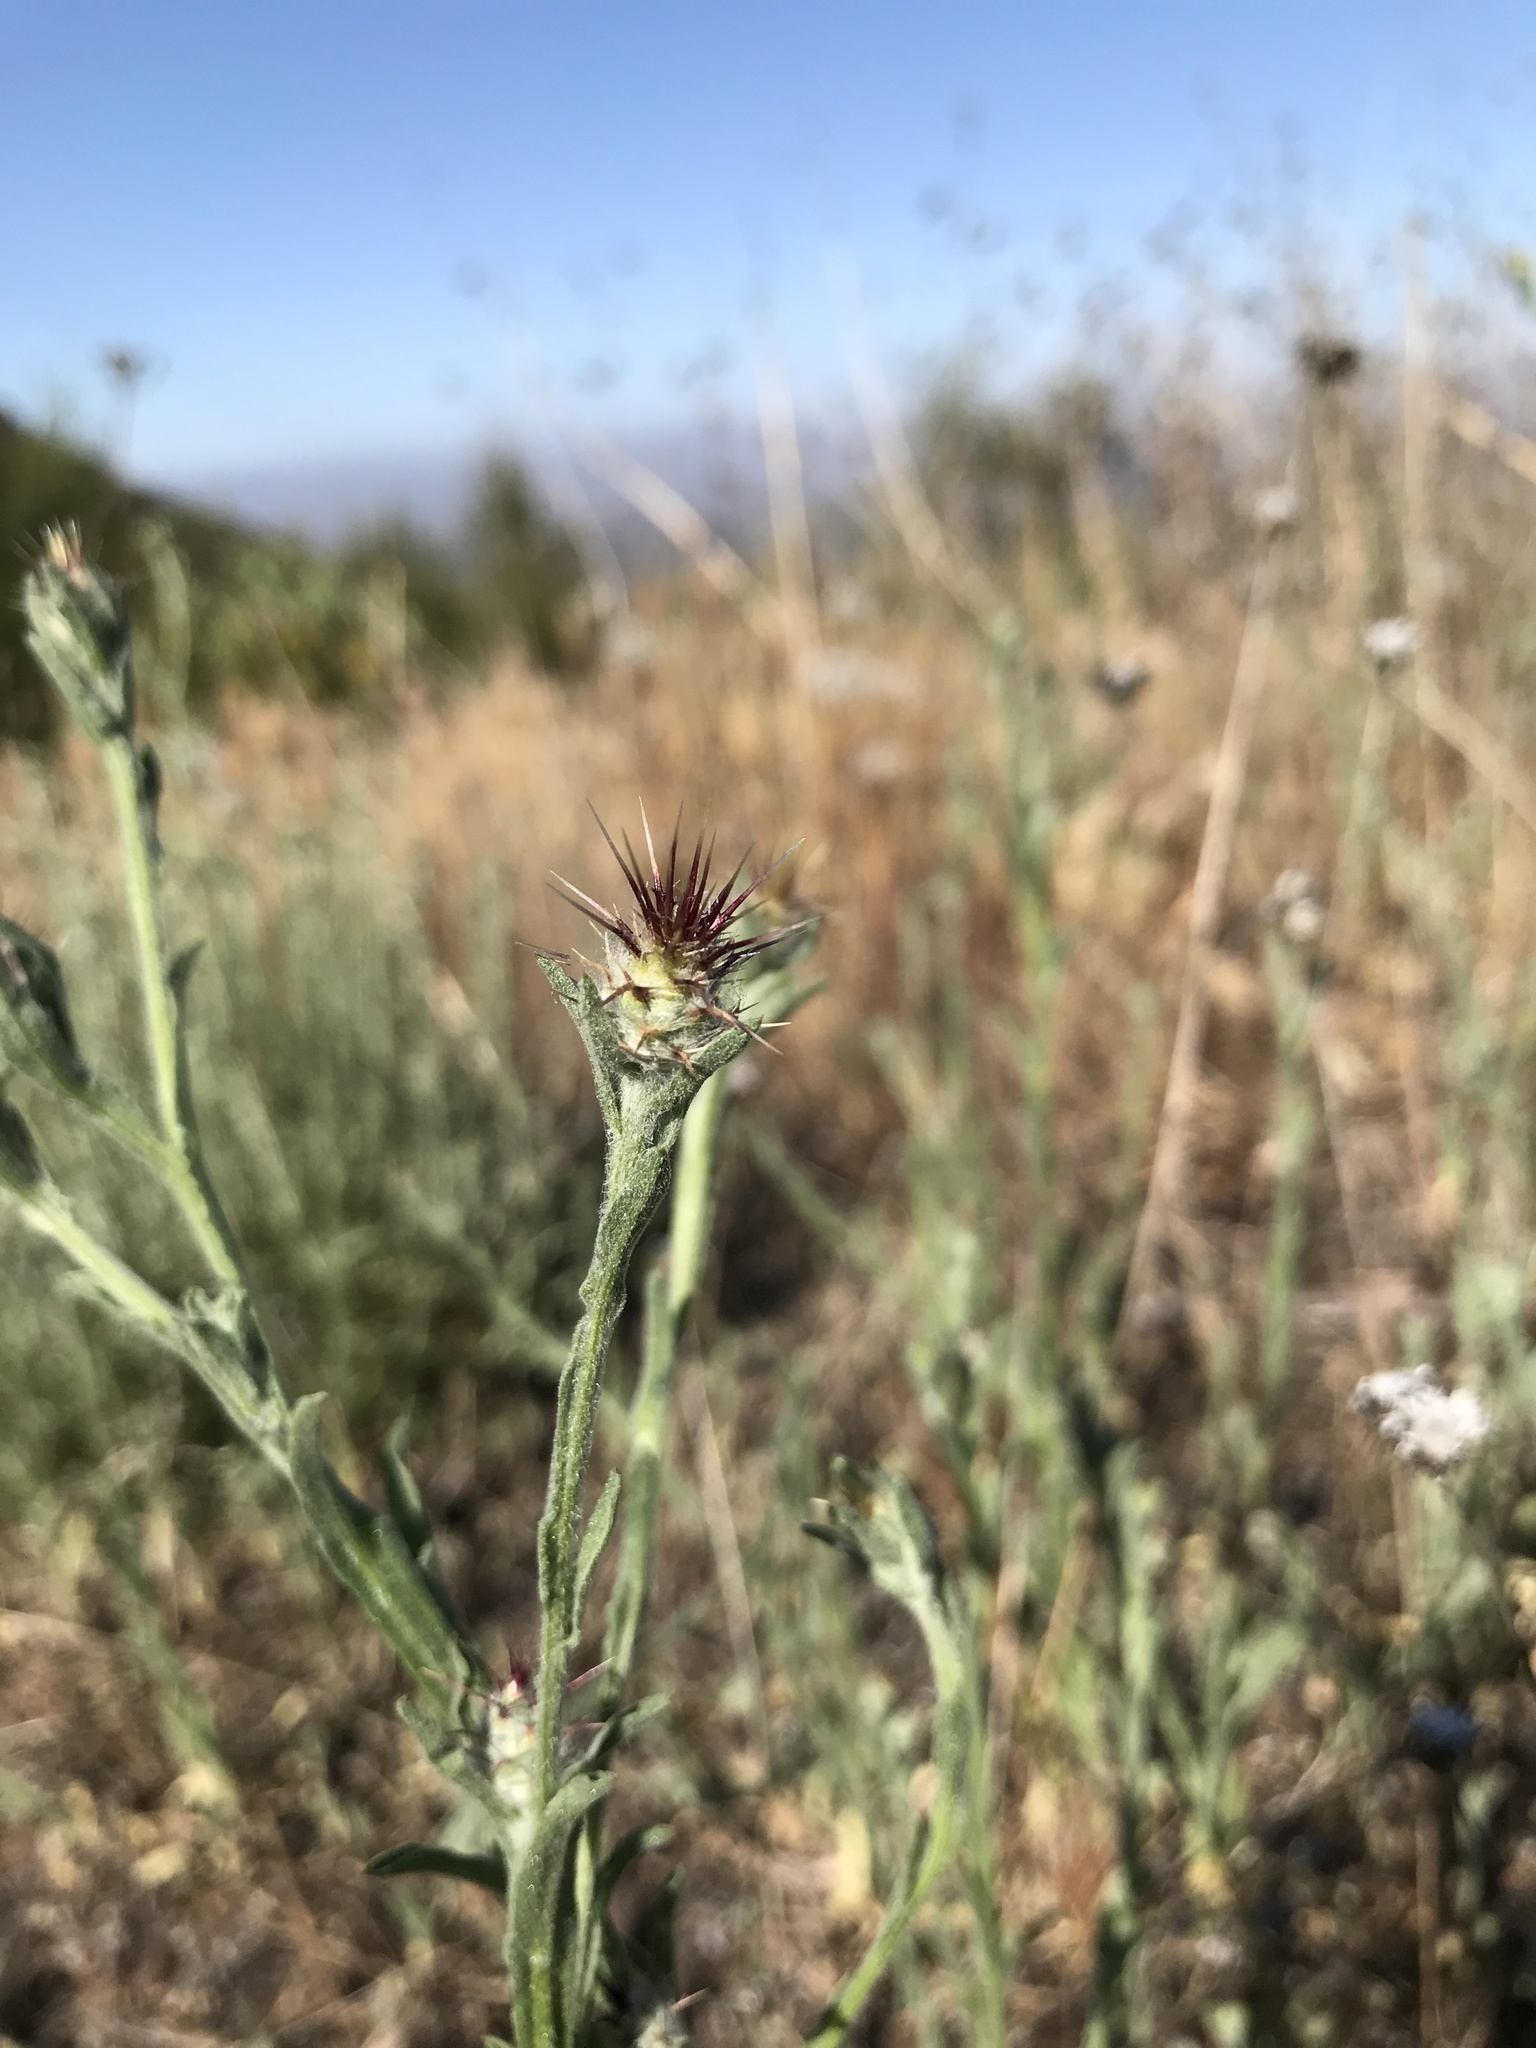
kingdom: Plantae
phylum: Tracheophyta
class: Magnoliopsida
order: Asterales
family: Asteraceae
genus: Centaurea
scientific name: Centaurea melitensis
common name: Maltese star-thistle
